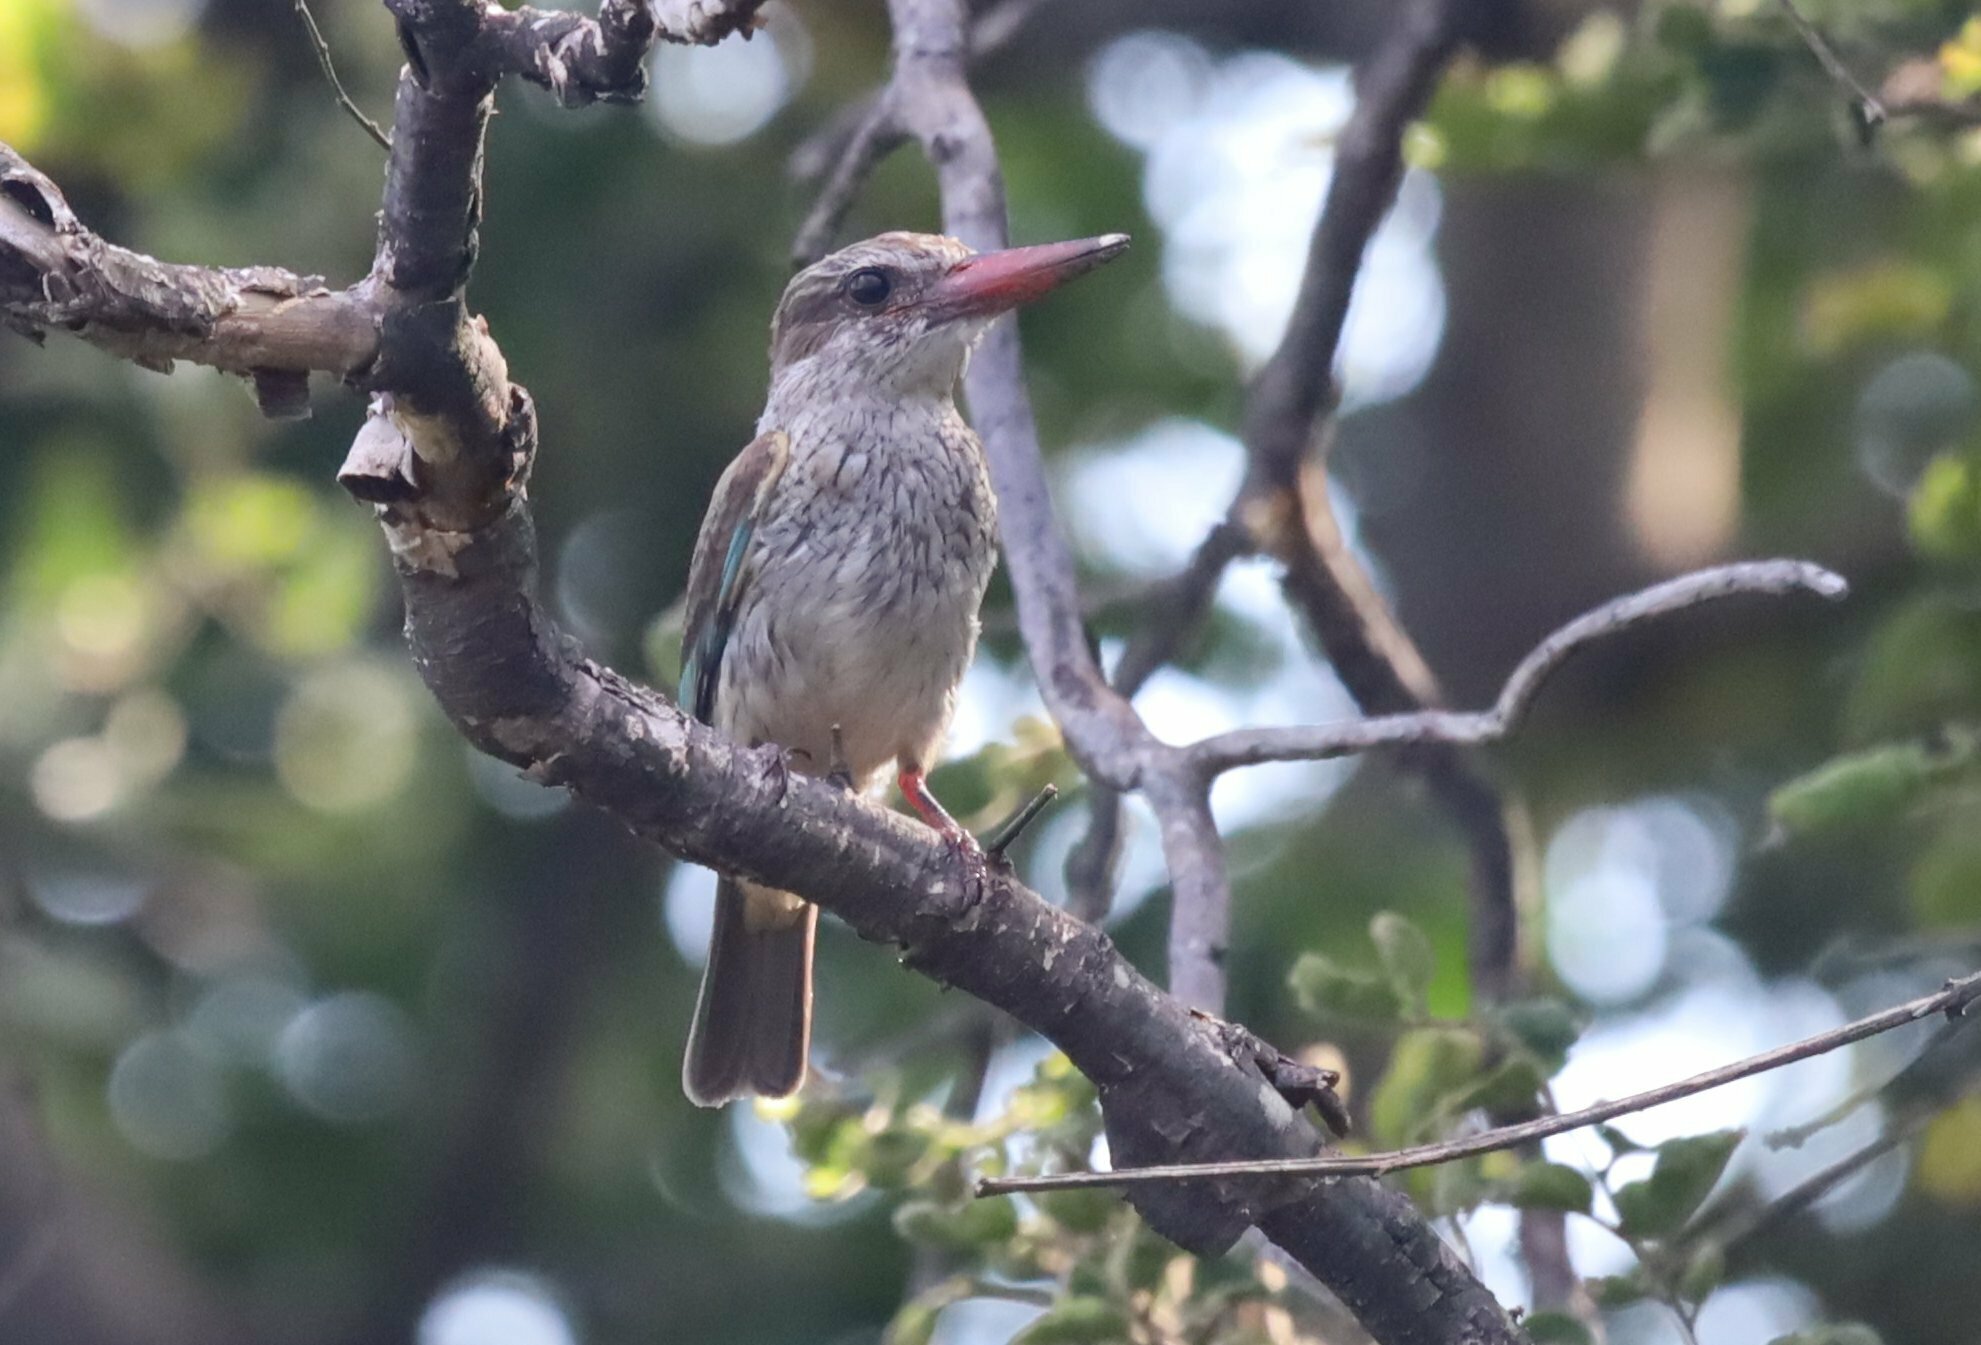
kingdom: Animalia
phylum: Chordata
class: Aves
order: Coraciiformes
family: Alcedinidae
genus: Halcyon
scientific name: Halcyon albiventris
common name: Brown-hooded kingfisher
